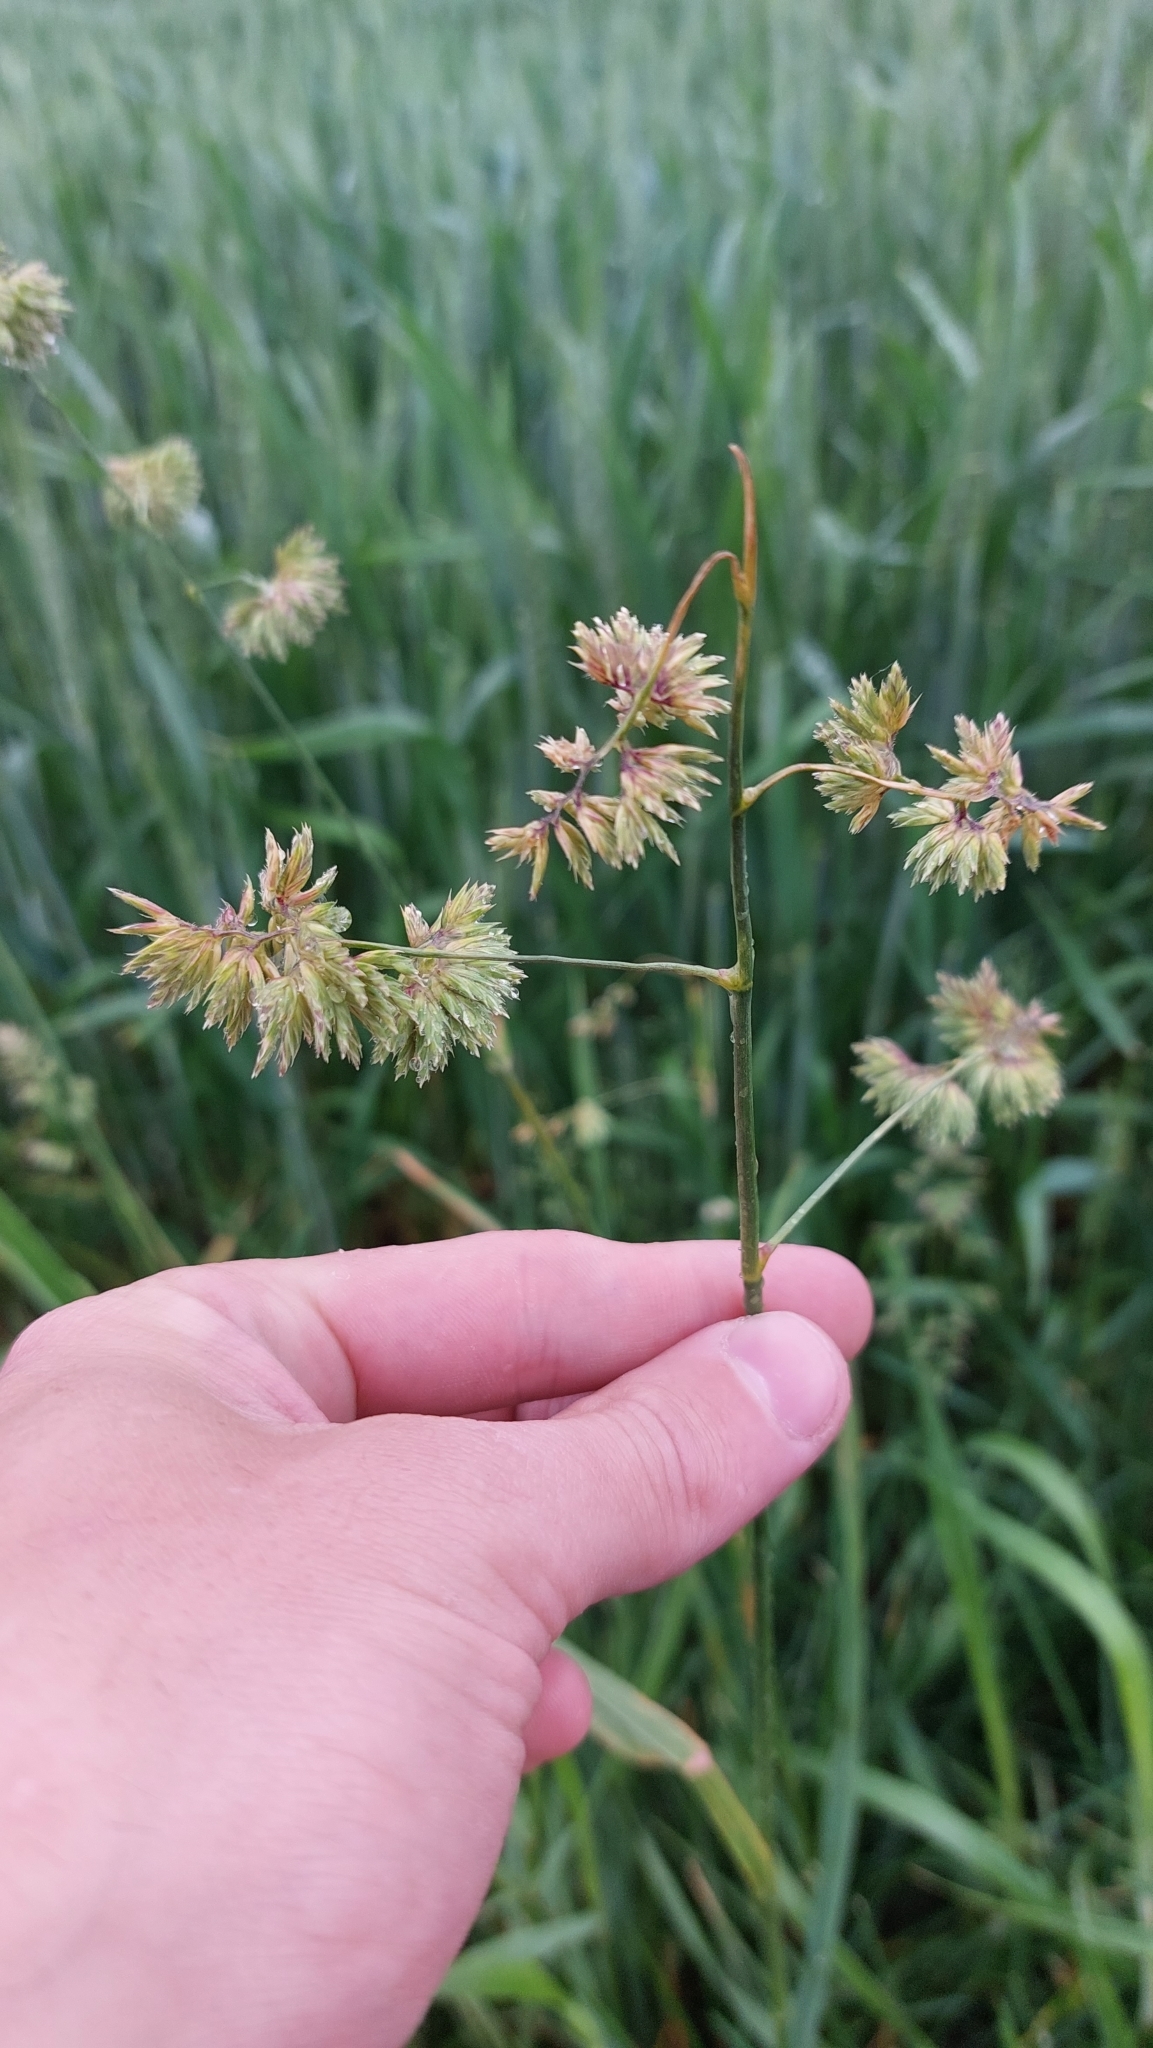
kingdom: Plantae
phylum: Tracheophyta
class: Liliopsida
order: Poales
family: Poaceae
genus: Dactylis
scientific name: Dactylis glomerata
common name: Orchardgrass
